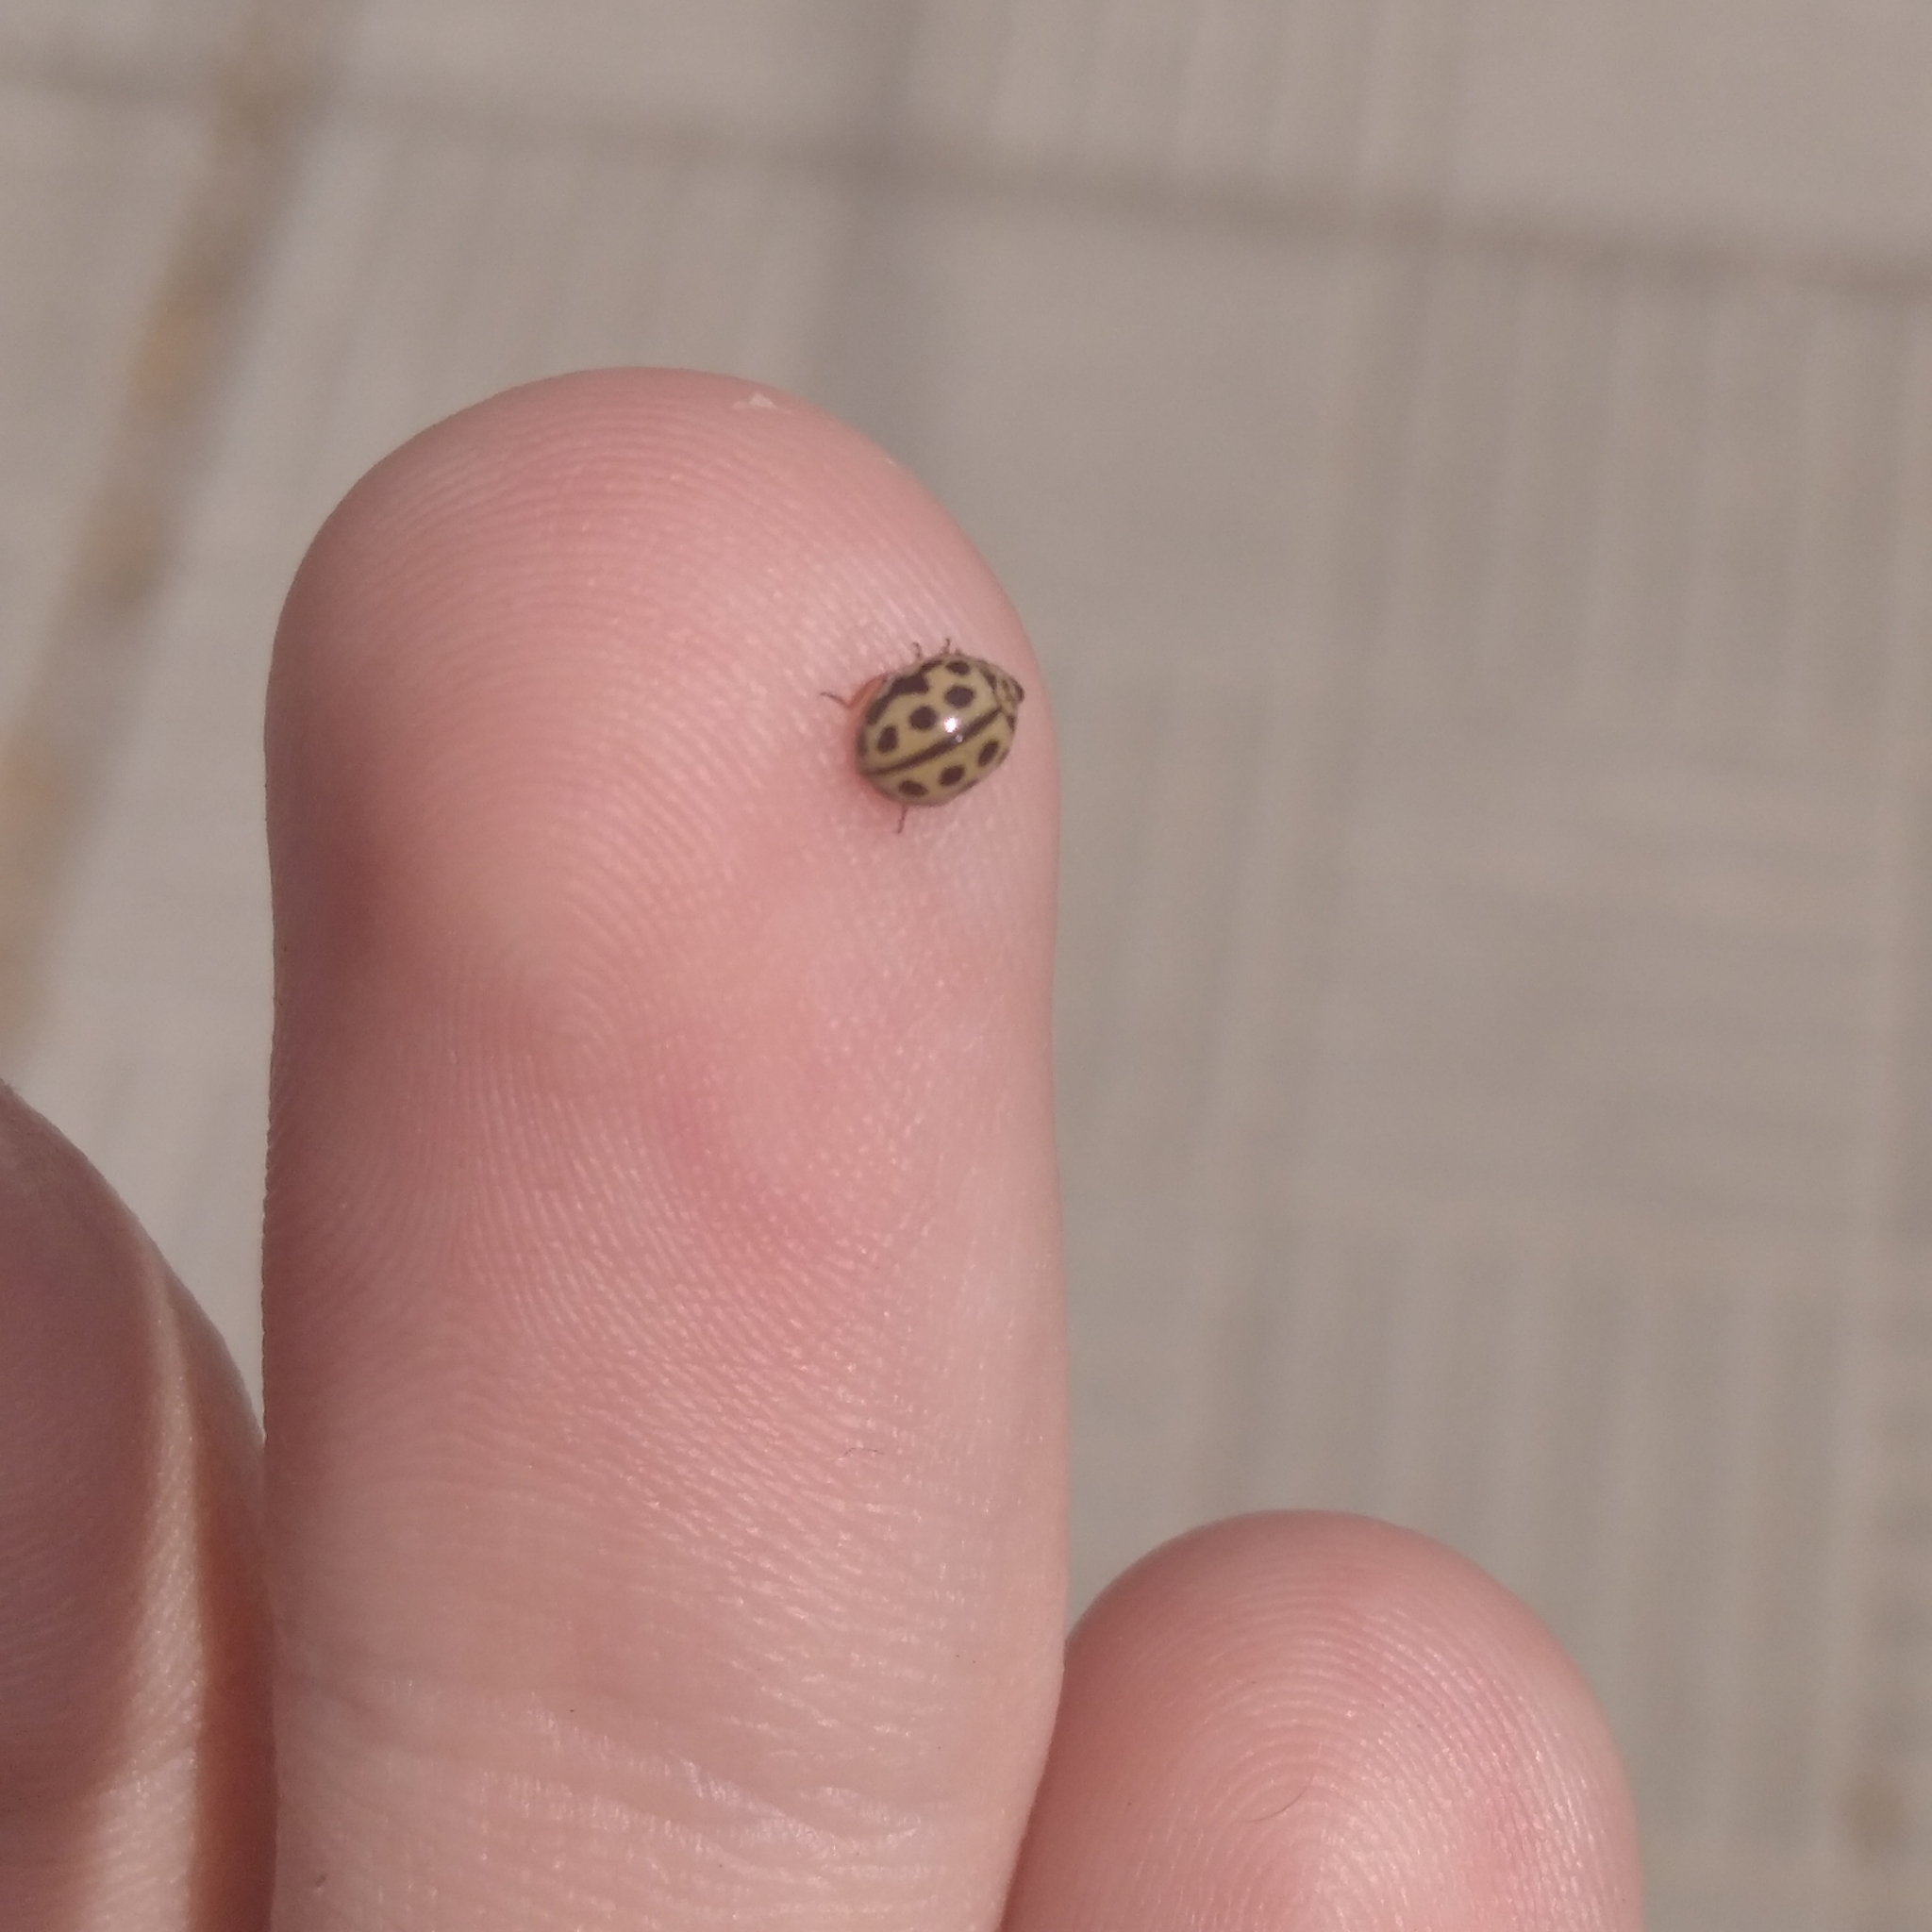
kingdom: Animalia
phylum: Arthropoda
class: Insecta
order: Coleoptera
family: Coccinellidae
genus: Tytthaspis
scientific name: Tytthaspis sedecimpunctata
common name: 16-spot ladybird
